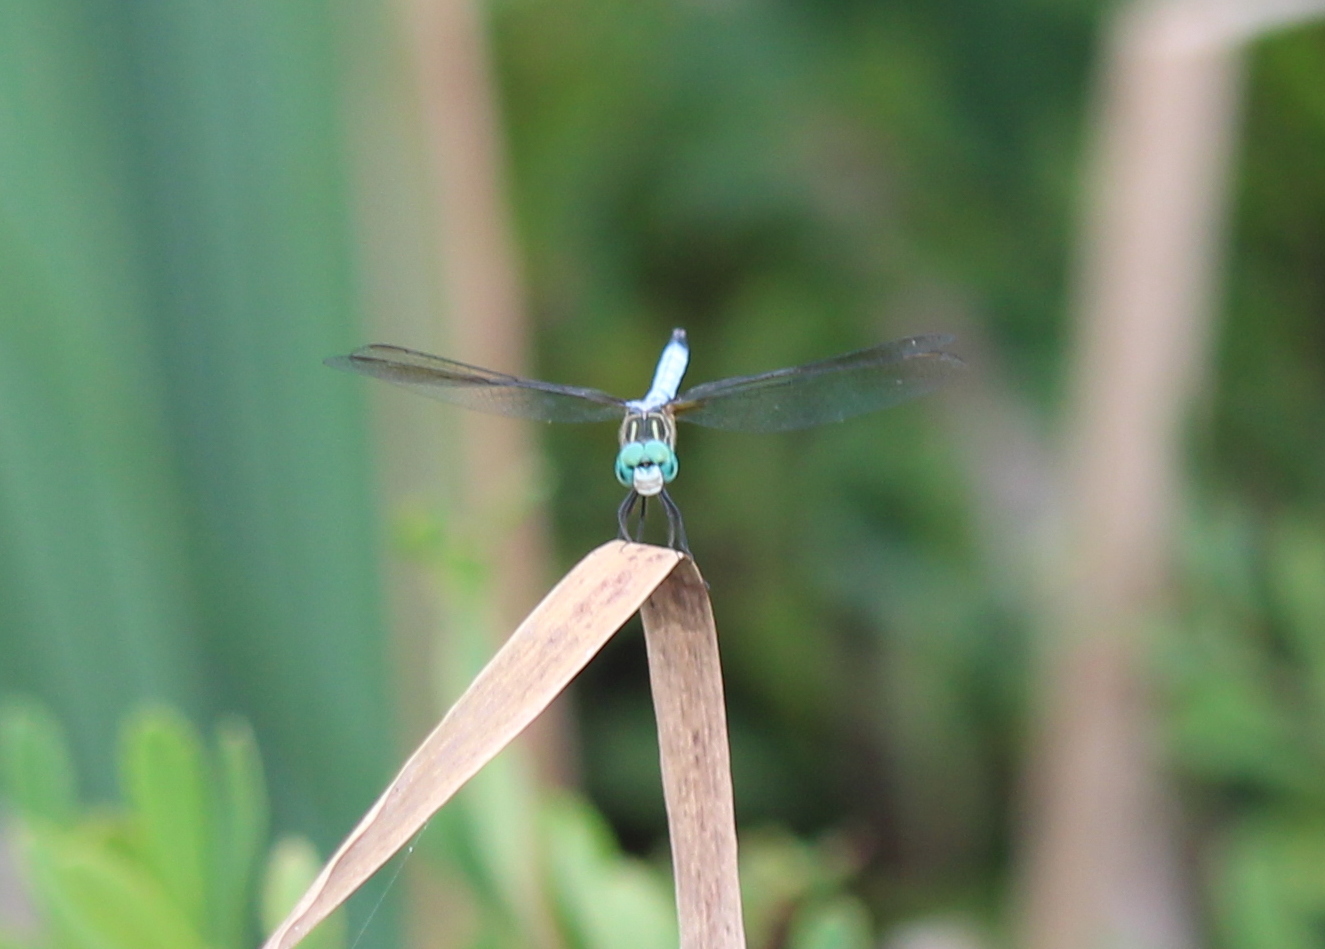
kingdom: Animalia
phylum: Arthropoda
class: Insecta
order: Odonata
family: Libellulidae
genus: Pachydiplax
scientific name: Pachydiplax longipennis
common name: Blue dasher
